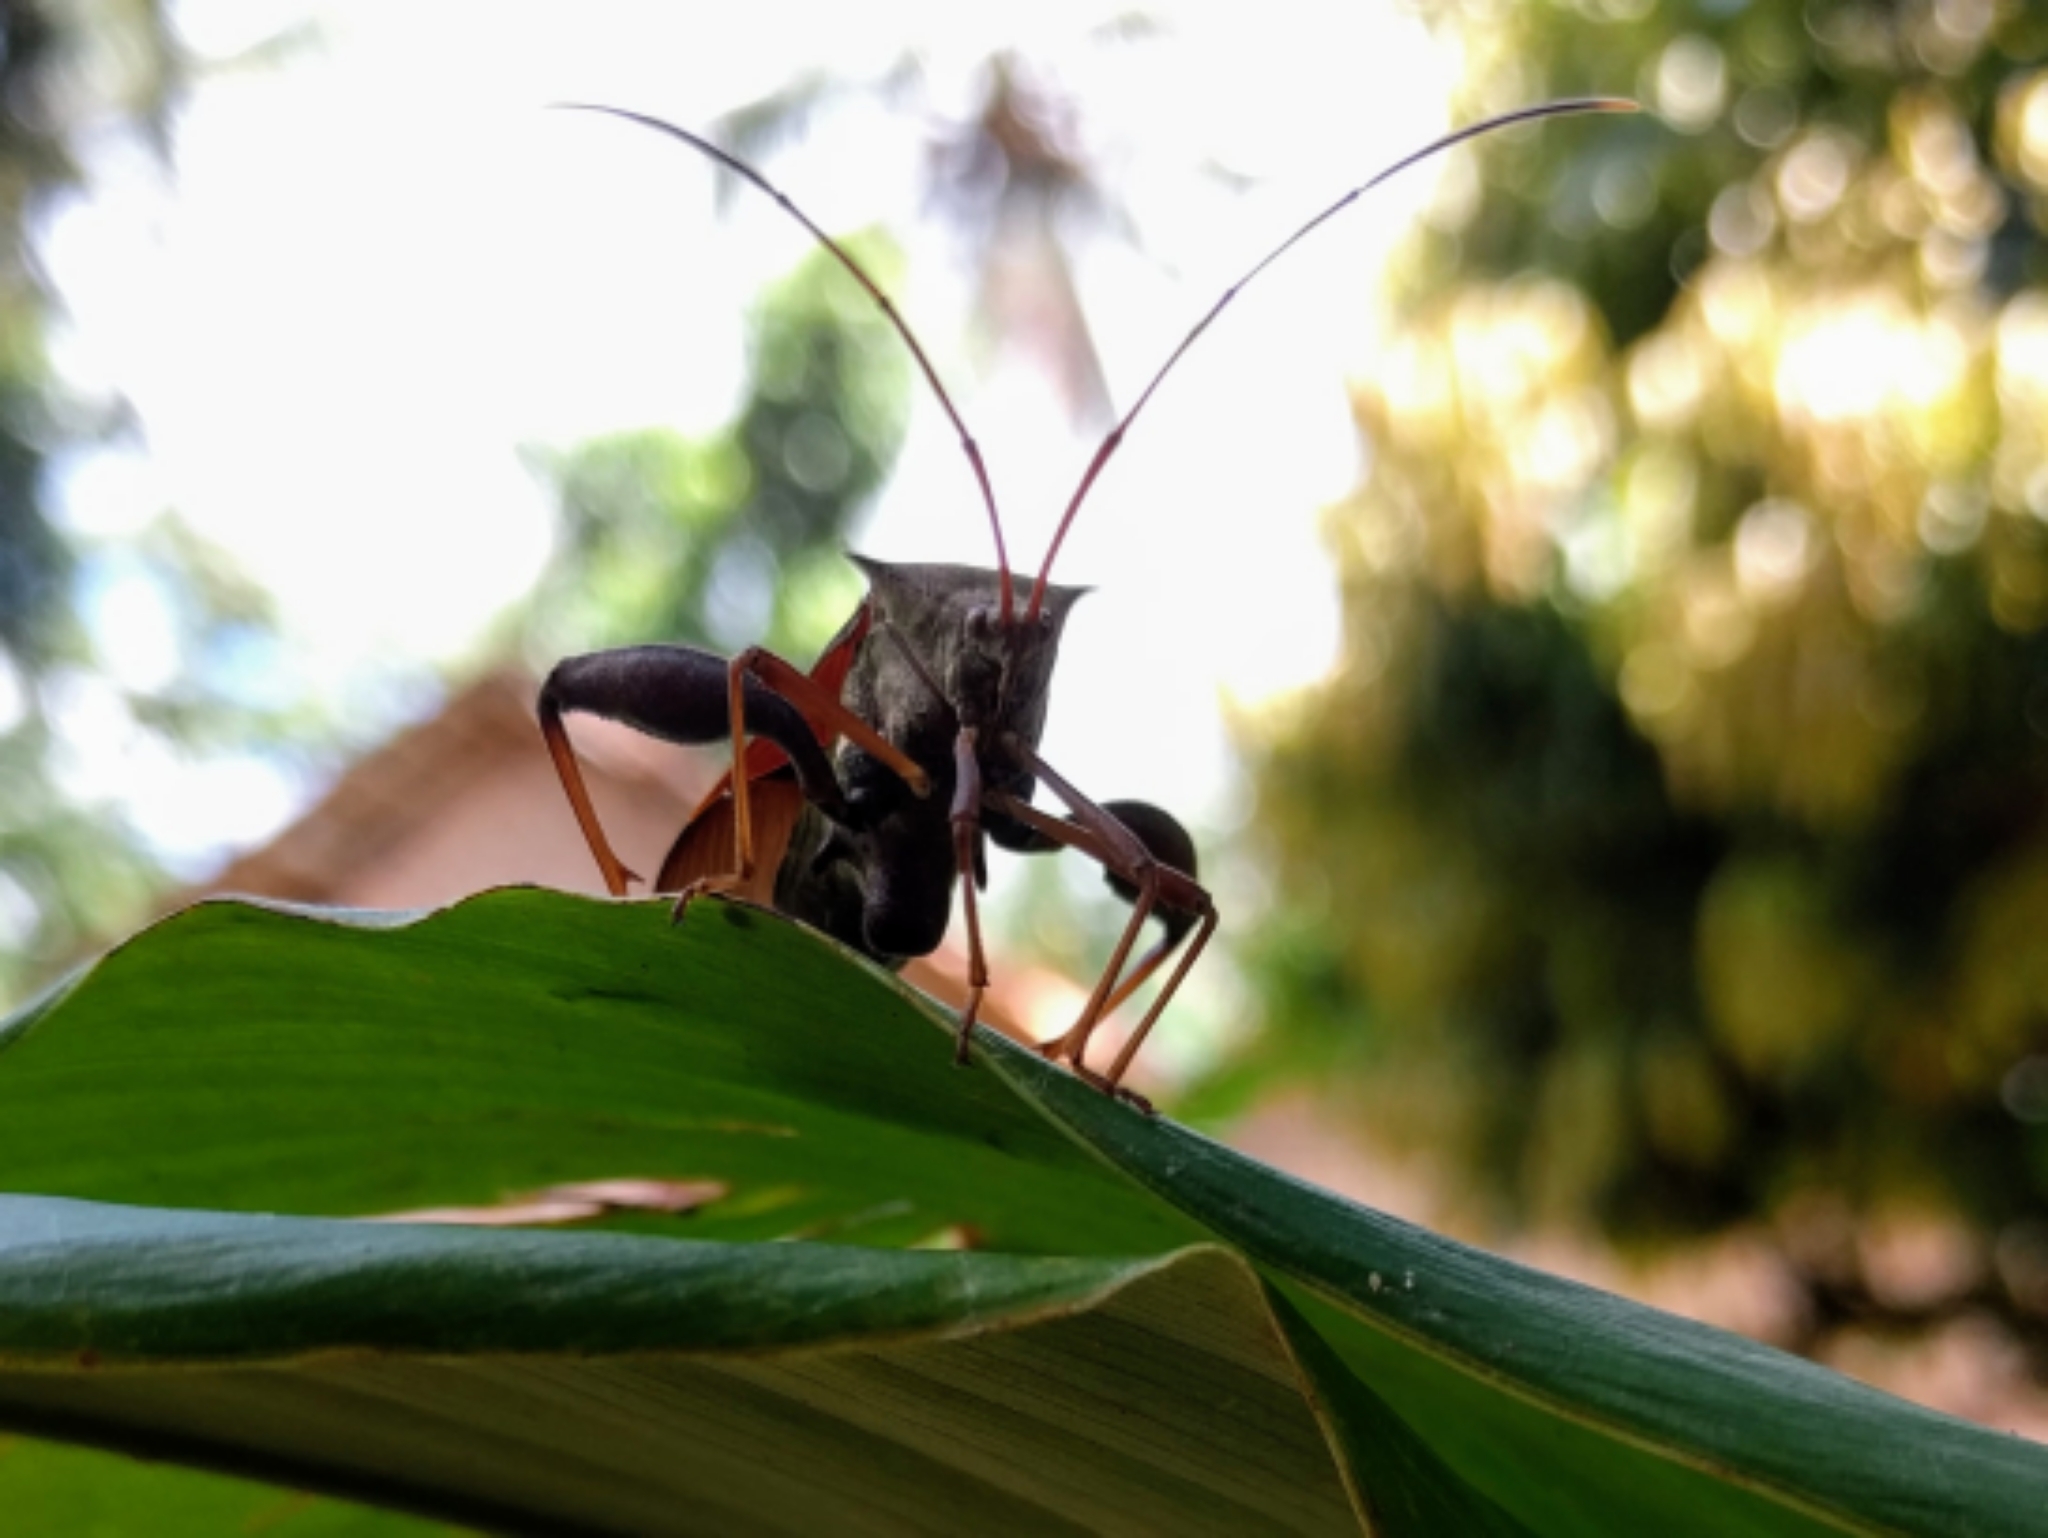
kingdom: Animalia
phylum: Arthropoda
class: Insecta
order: Hemiptera
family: Coreidae
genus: Mictis
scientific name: Mictis longicornis
